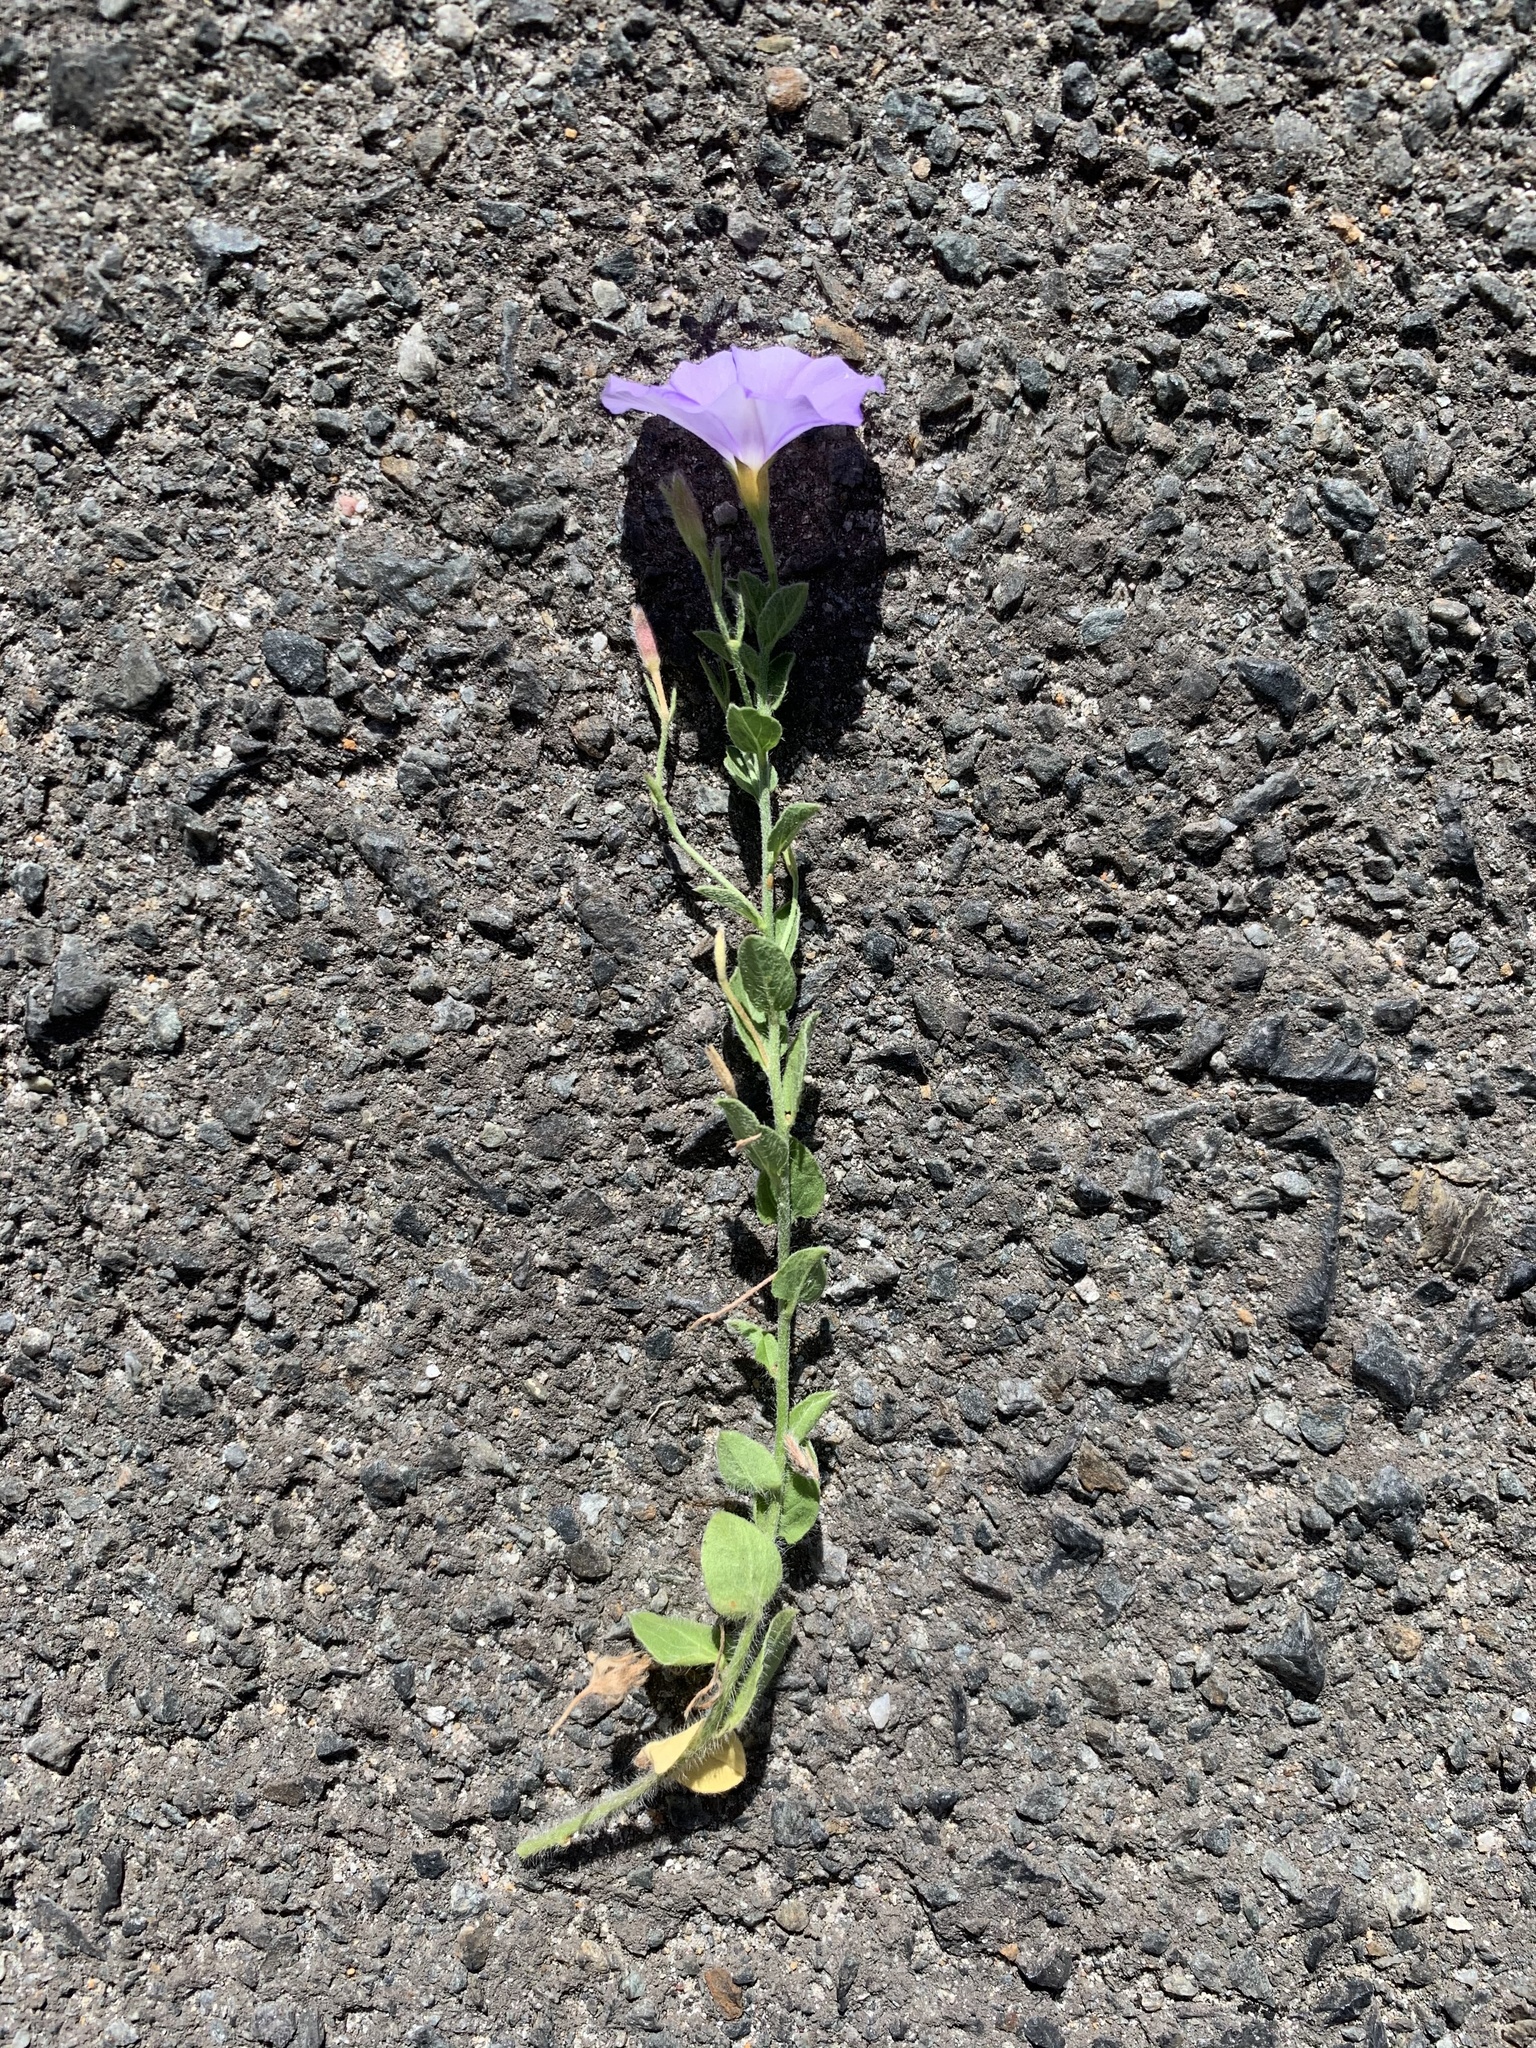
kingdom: Plantae
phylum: Tracheophyta
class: Magnoliopsida
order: Solanales
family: Convolvulaceae
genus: Convolvulus
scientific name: Convolvulus sabatius
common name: Ground blue-convolvulus
